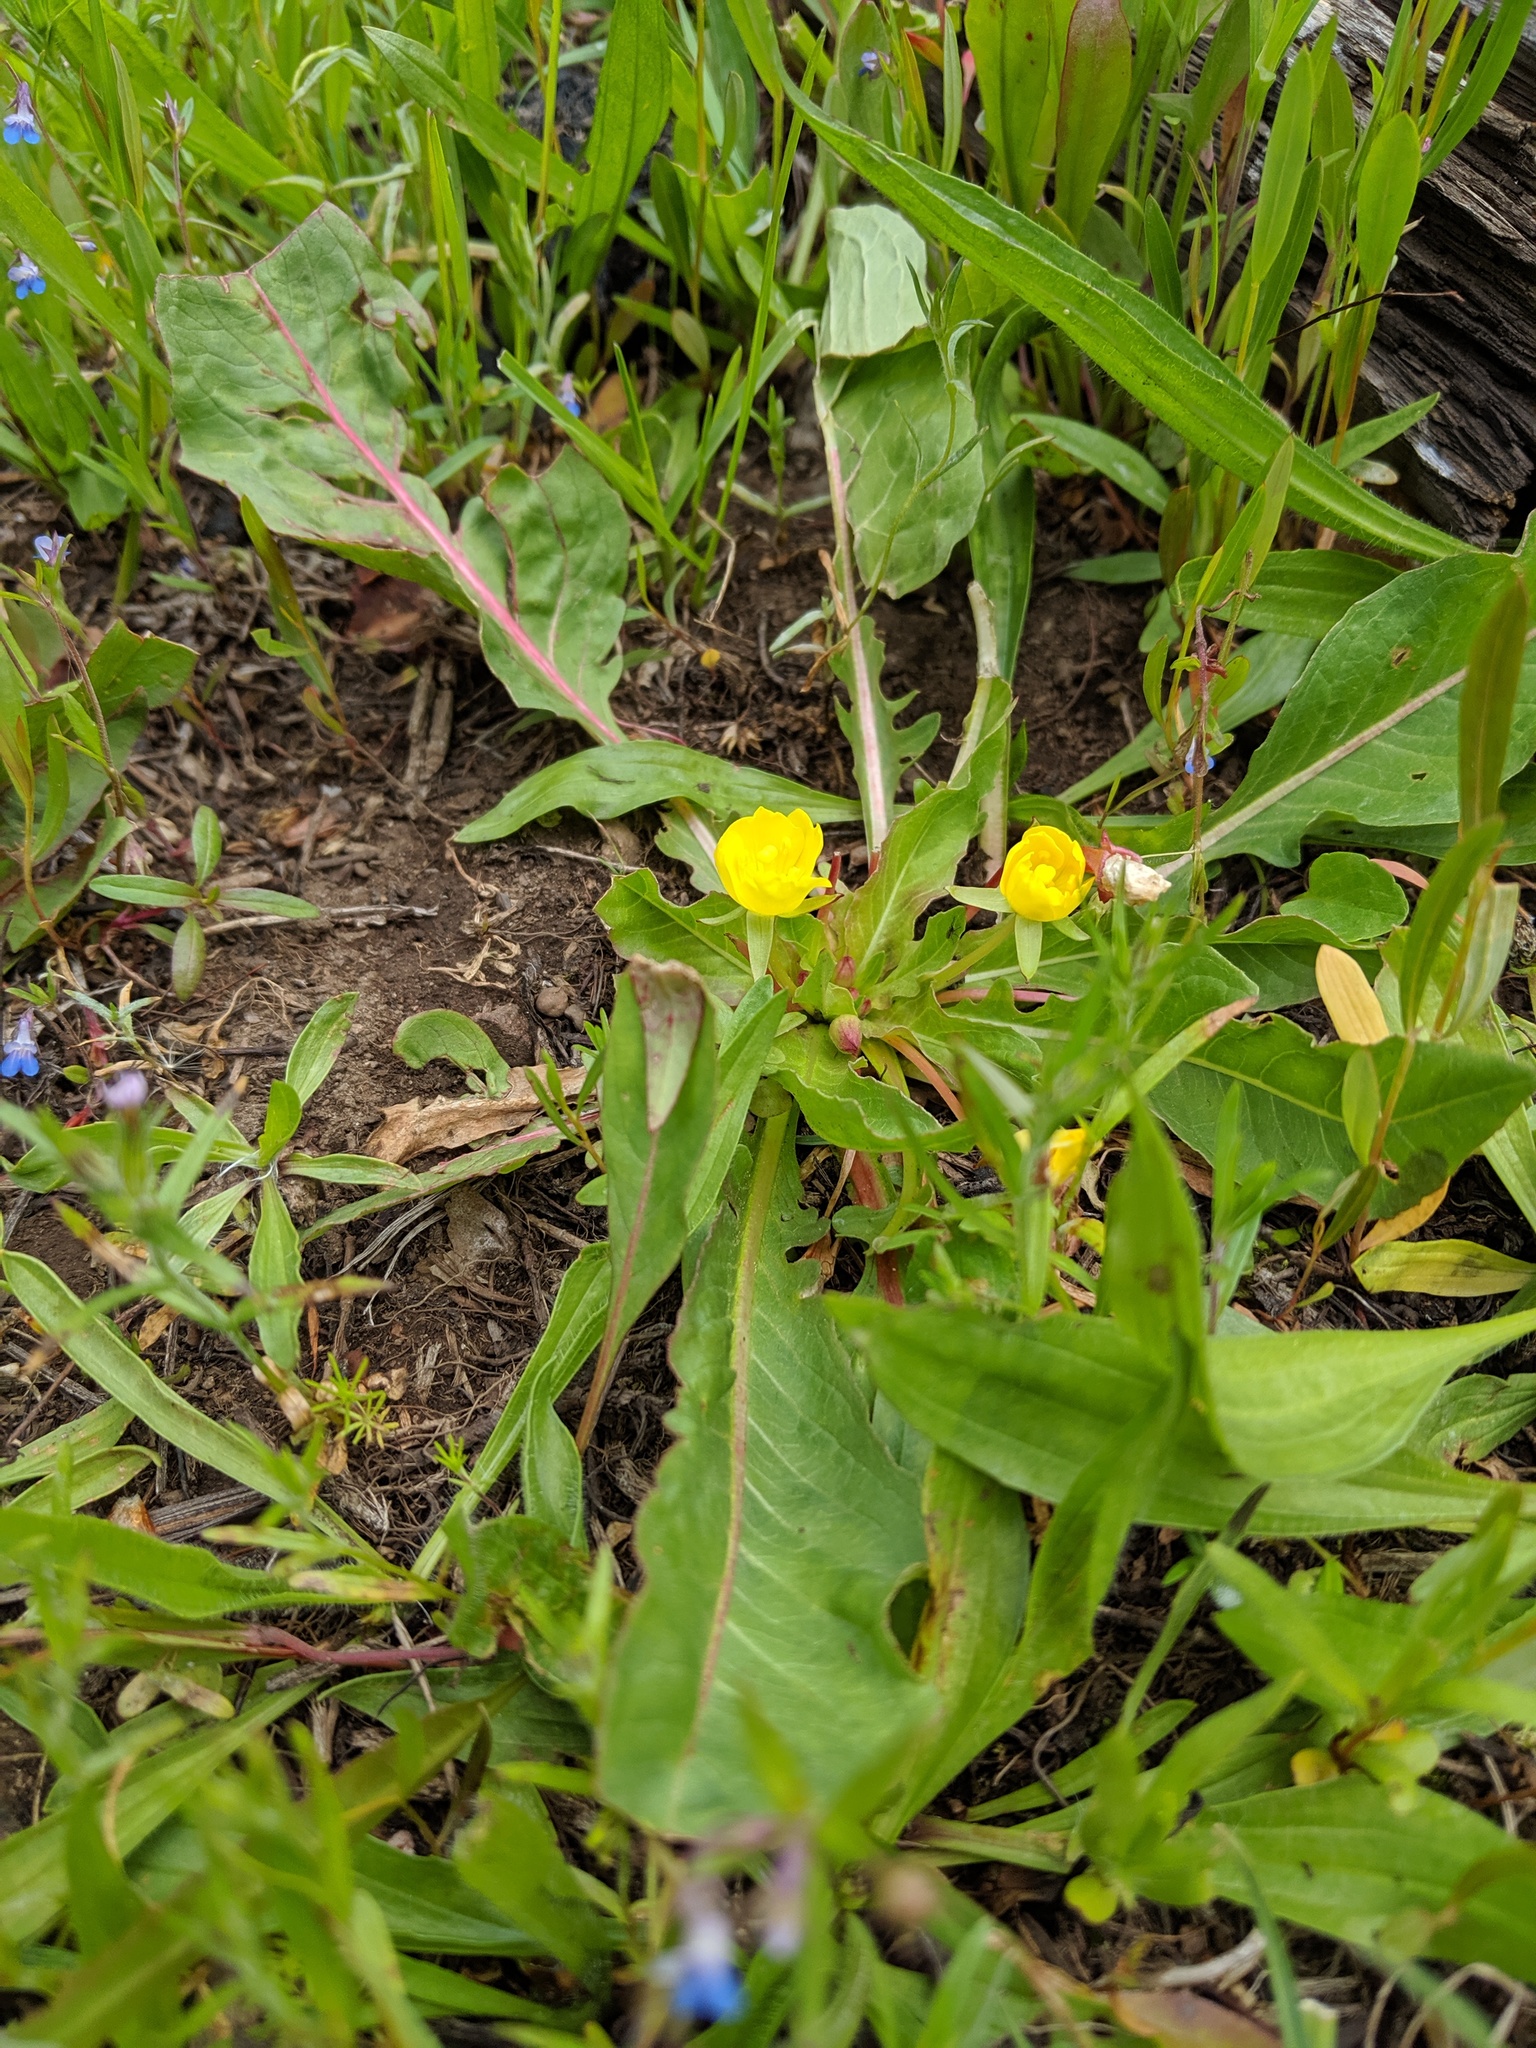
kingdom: Plantae
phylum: Tracheophyta
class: Magnoliopsida
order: Myrtales
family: Onagraceae
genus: Taraxia
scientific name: Taraxia subacaulis
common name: Diffuseflower evening primrose
